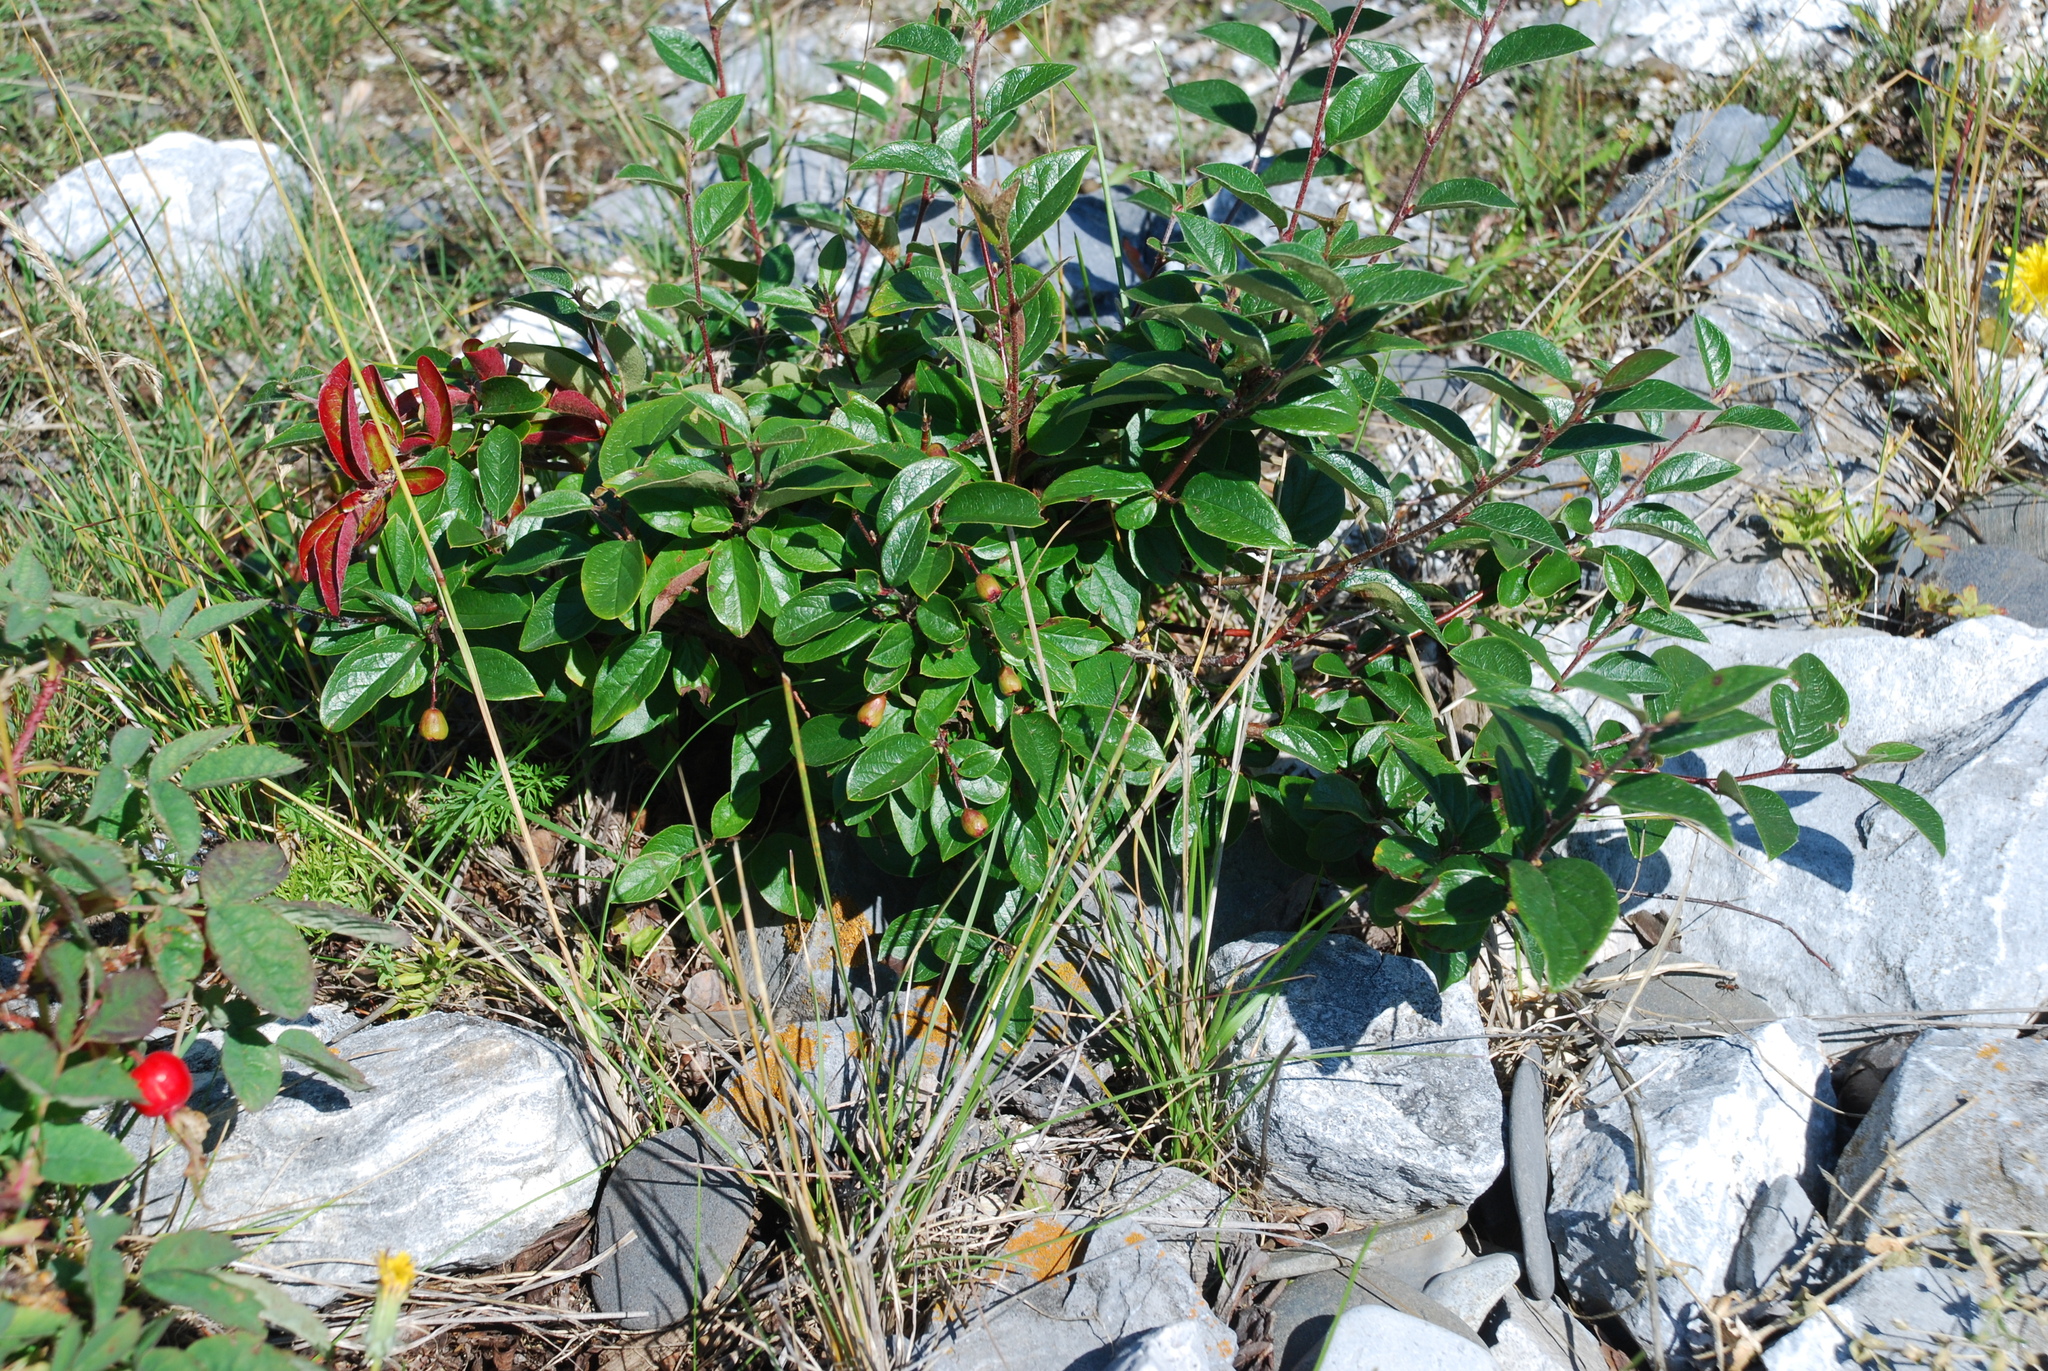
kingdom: Plantae
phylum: Tracheophyta
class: Magnoliopsida
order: Rosales
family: Rosaceae
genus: Cotoneaster
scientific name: Cotoneaster acutifolius
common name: Peking cotoneaster
